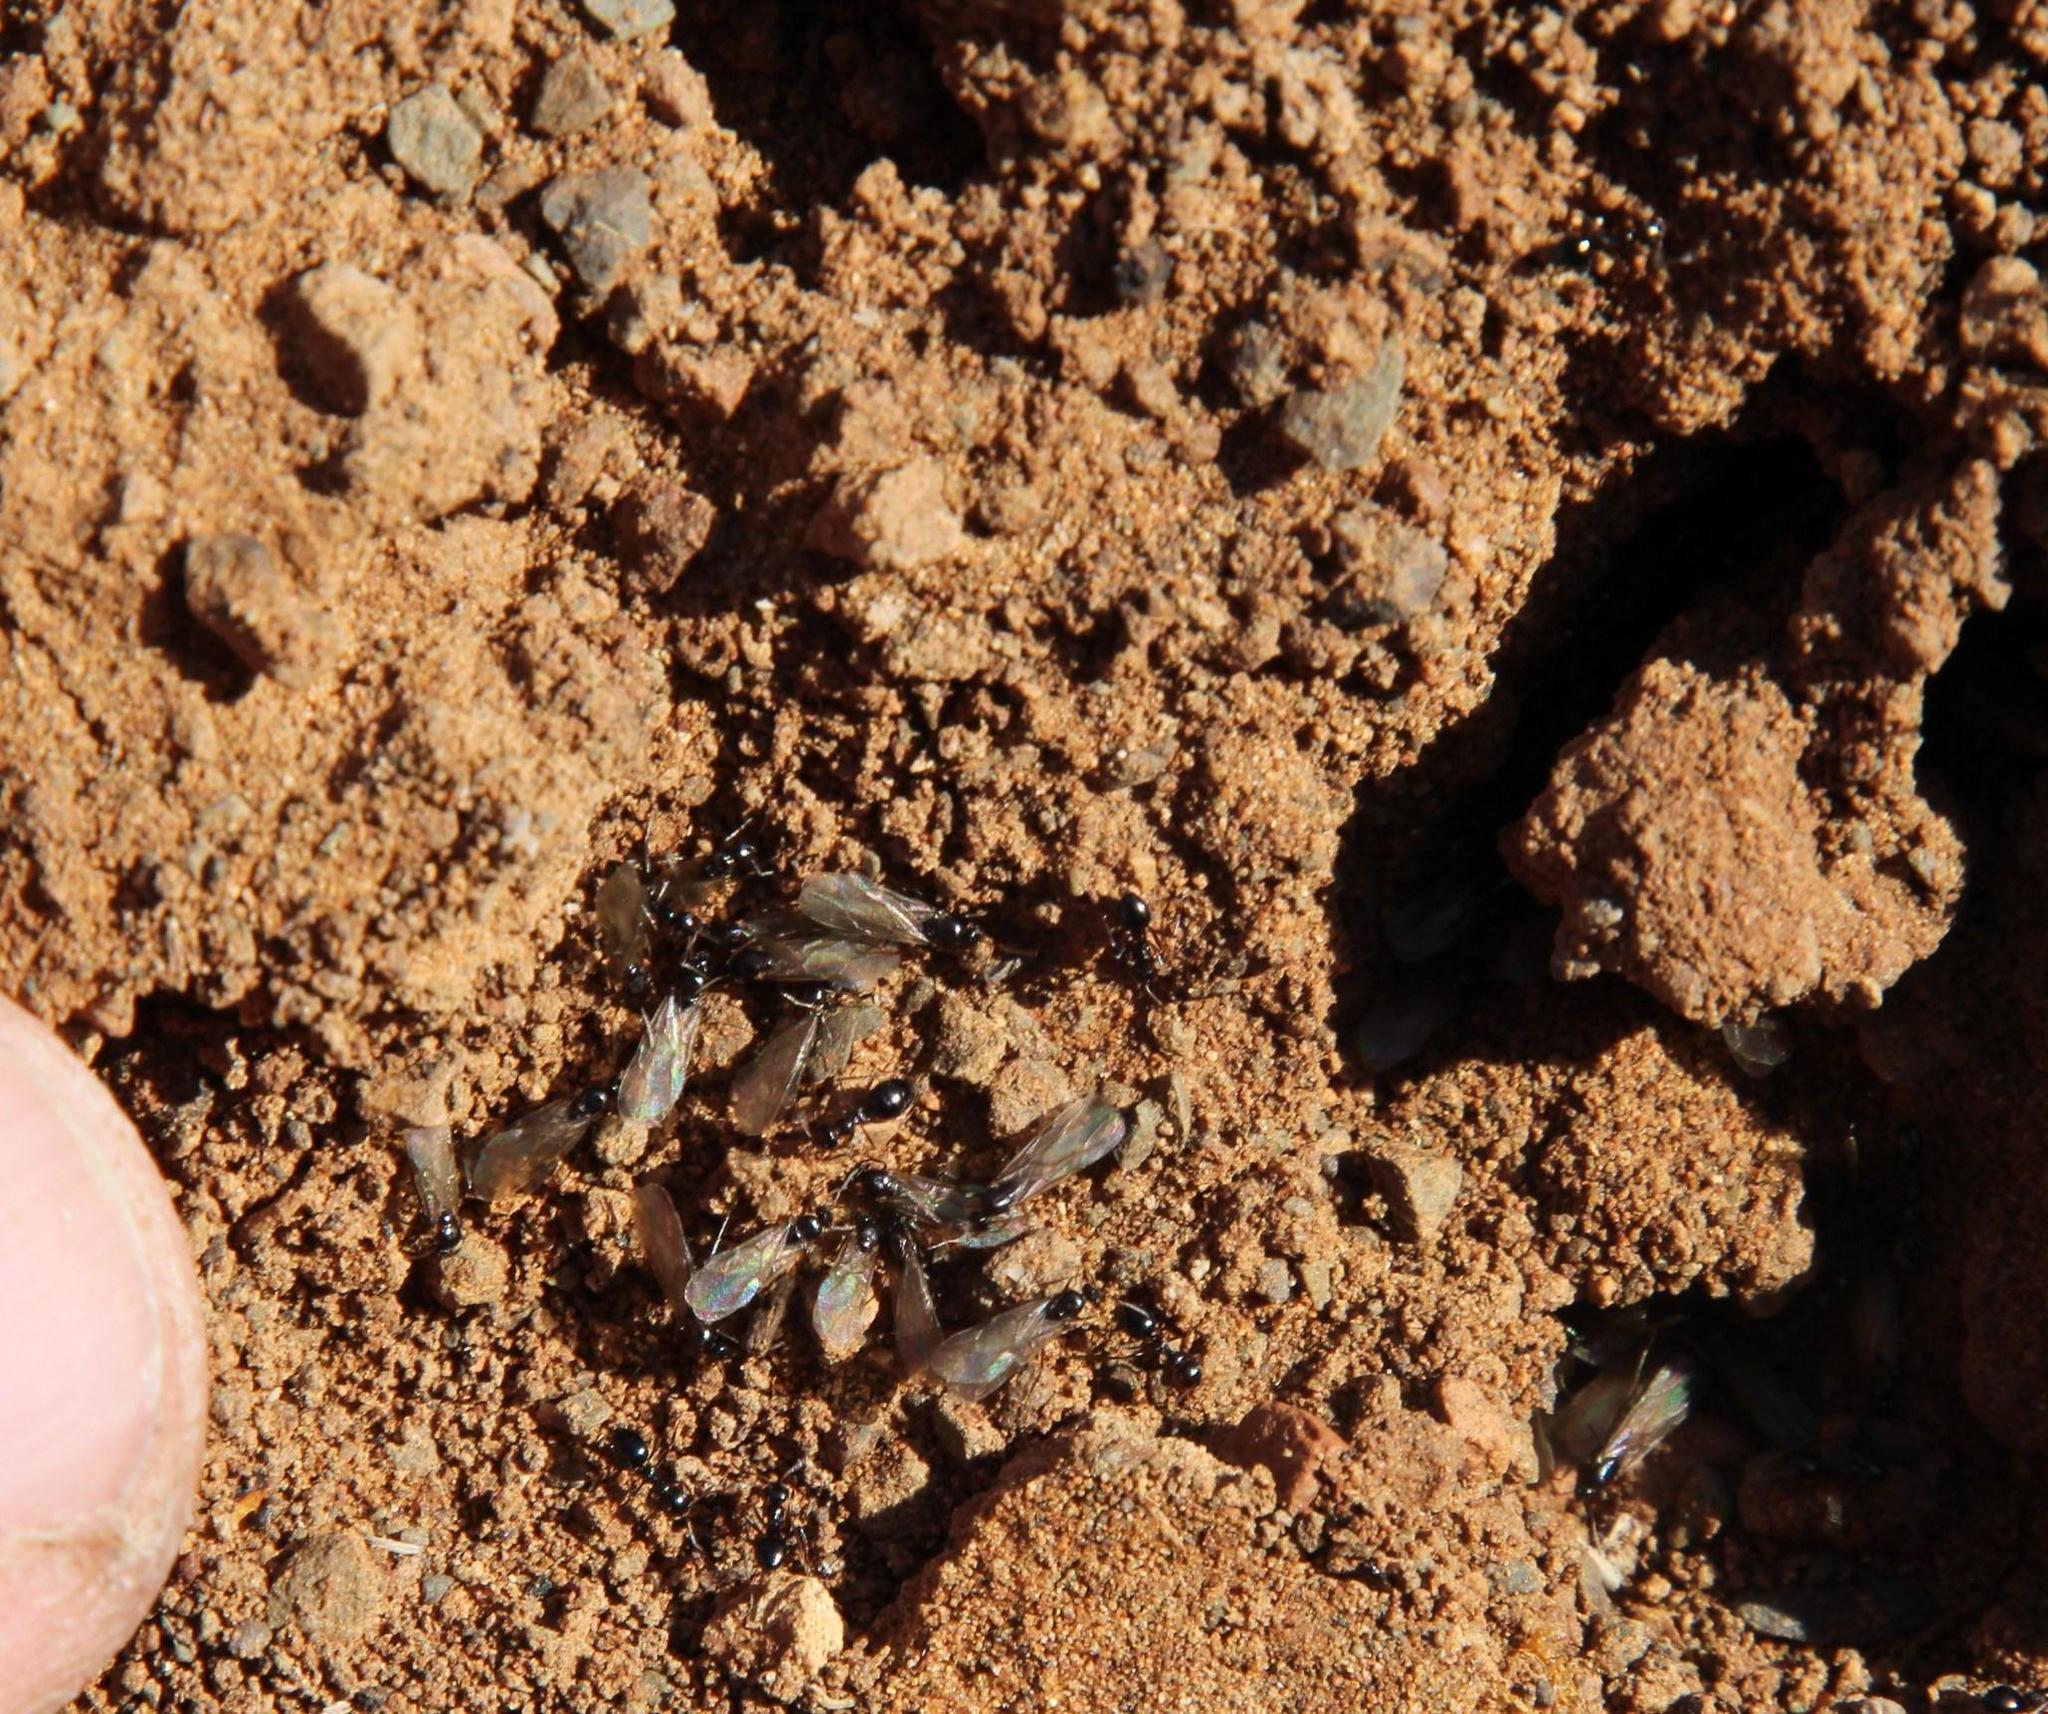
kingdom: Animalia
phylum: Arthropoda
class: Insecta
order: Hymenoptera
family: Formicidae
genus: Lepisiota
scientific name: Lepisiota capensis
